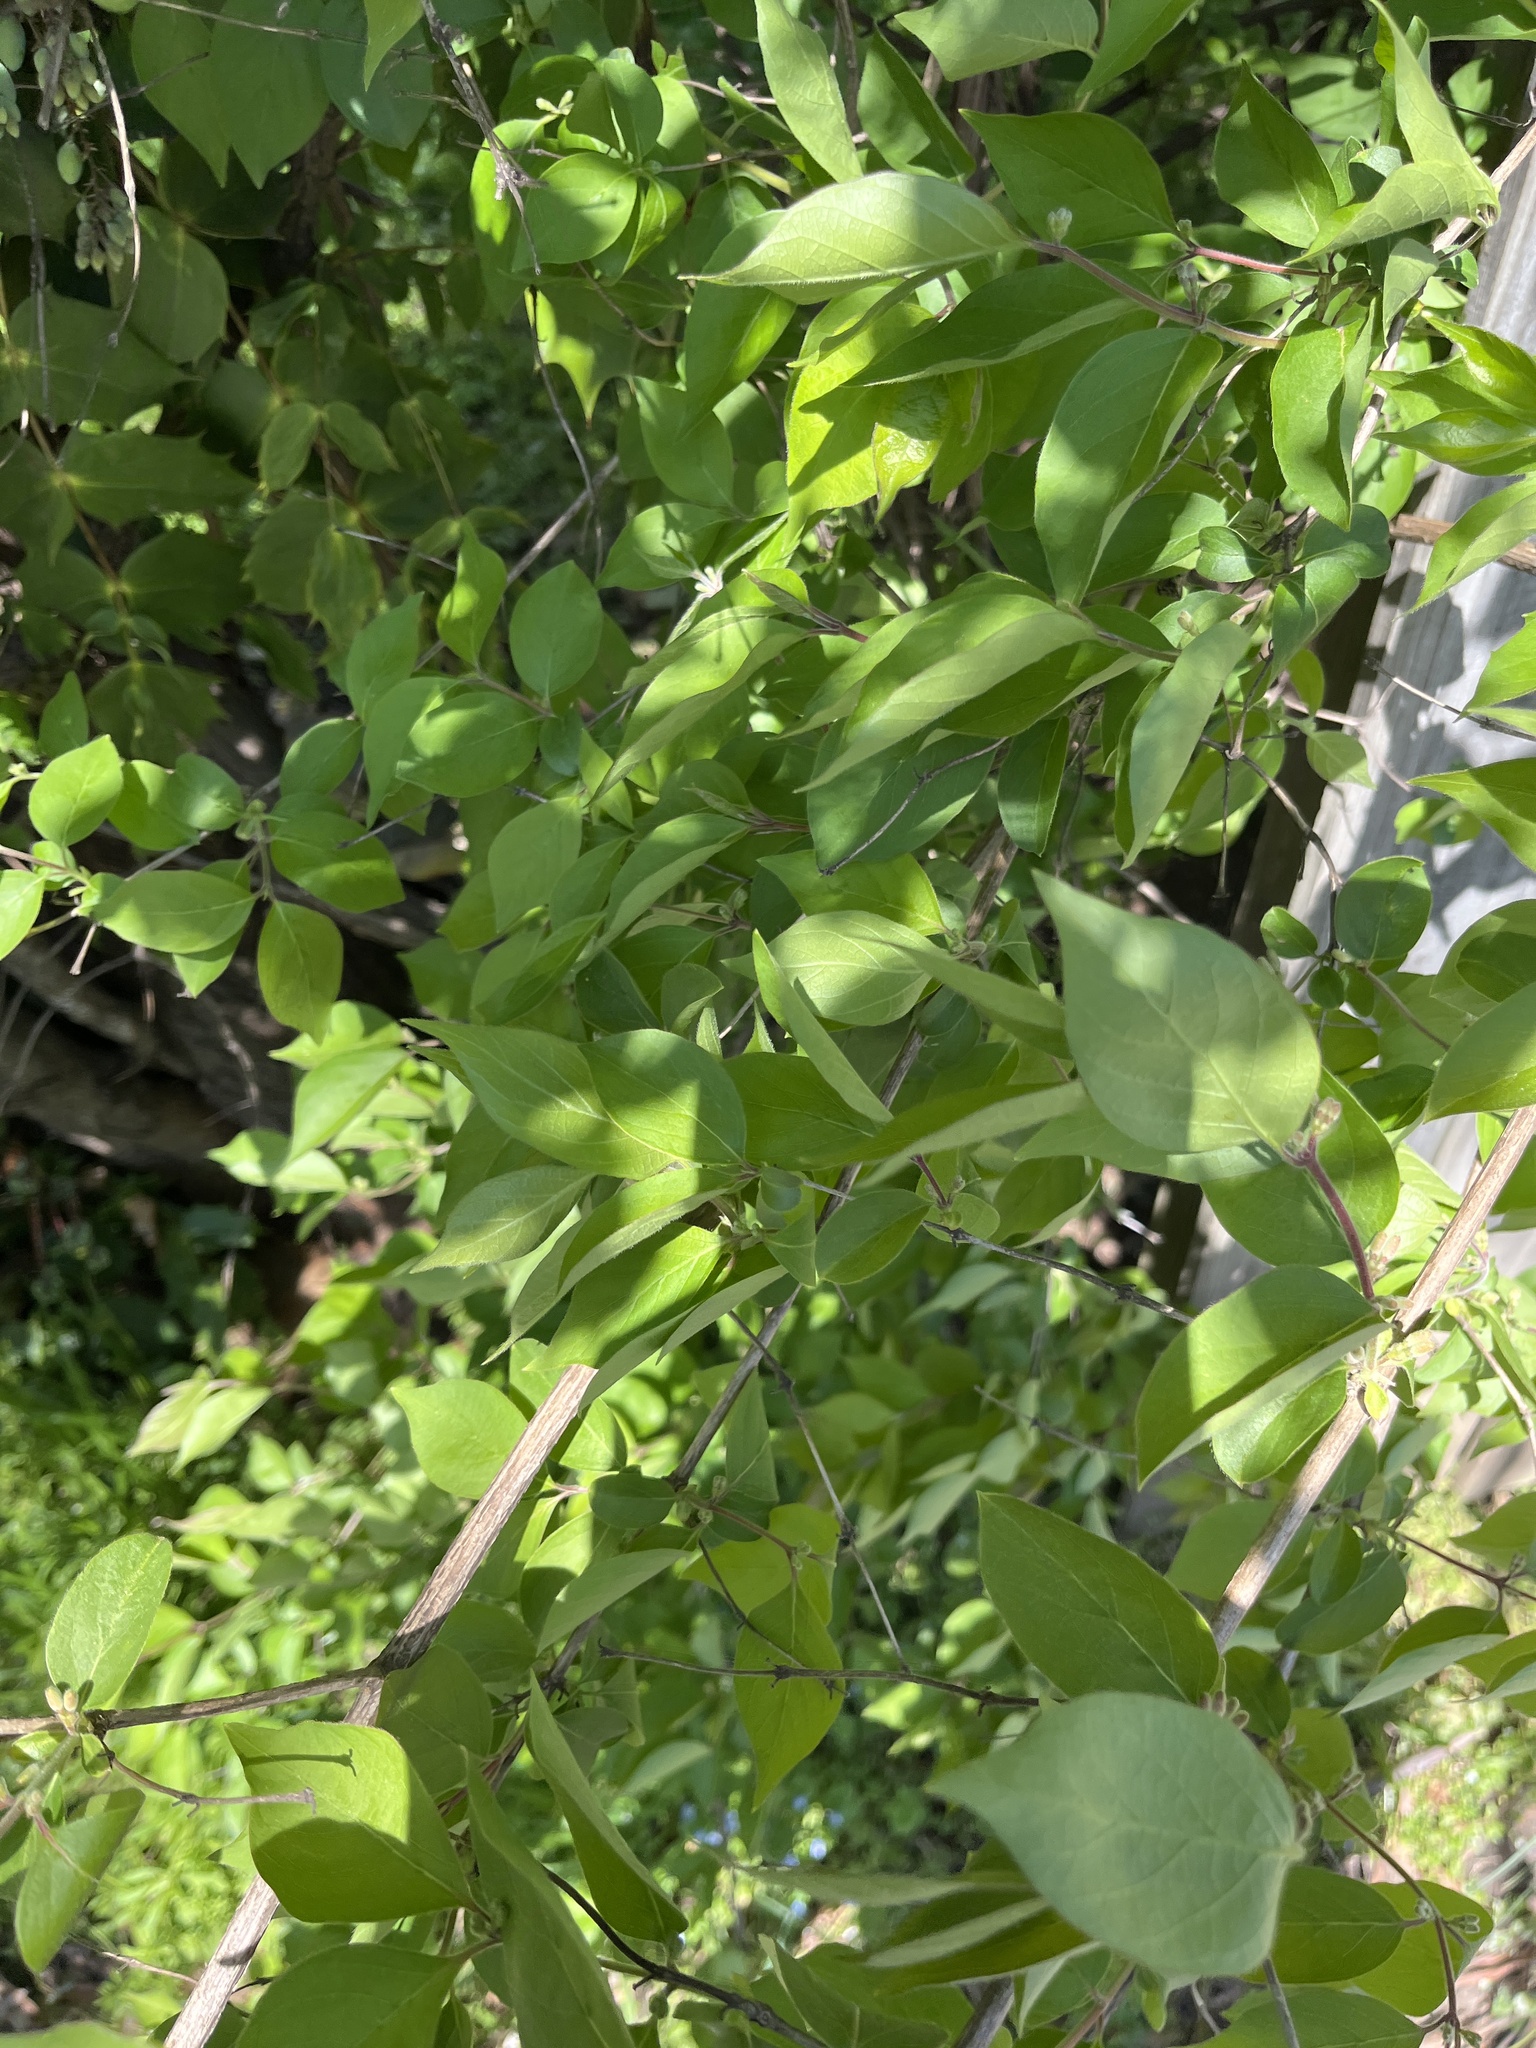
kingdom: Plantae
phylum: Tracheophyta
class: Magnoliopsida
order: Dipsacales
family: Caprifoliaceae
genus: Lonicera
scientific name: Lonicera maackii
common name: Amur honeysuckle
